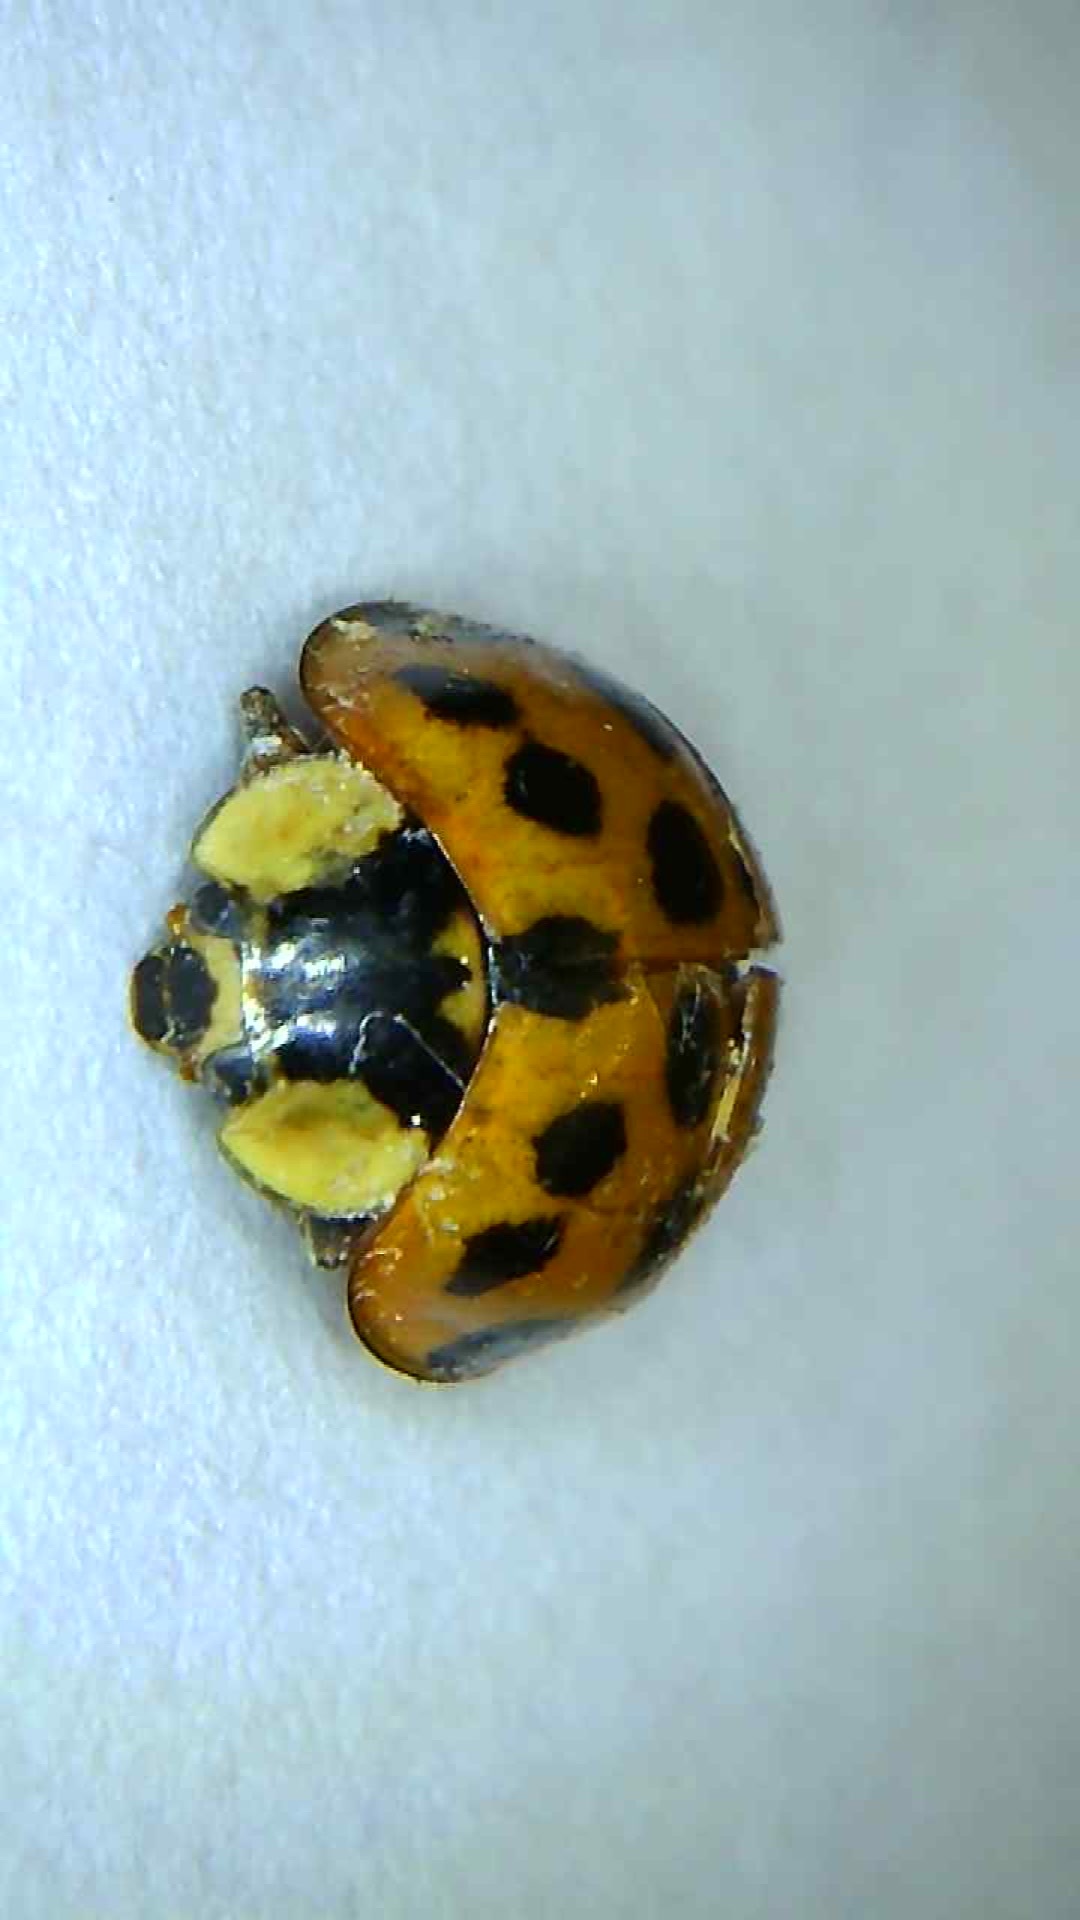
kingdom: Animalia
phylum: Arthropoda
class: Insecta
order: Coleoptera
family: Coccinellidae
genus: Harmonia
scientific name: Harmonia axyridis
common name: Harlequin ladybird
